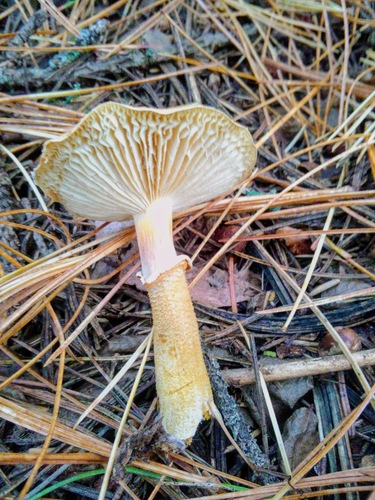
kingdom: Fungi
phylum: Basidiomycota
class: Agaricomycetes
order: Agaricales
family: Agaricaceae
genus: Cystodermella
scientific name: Cystodermella
